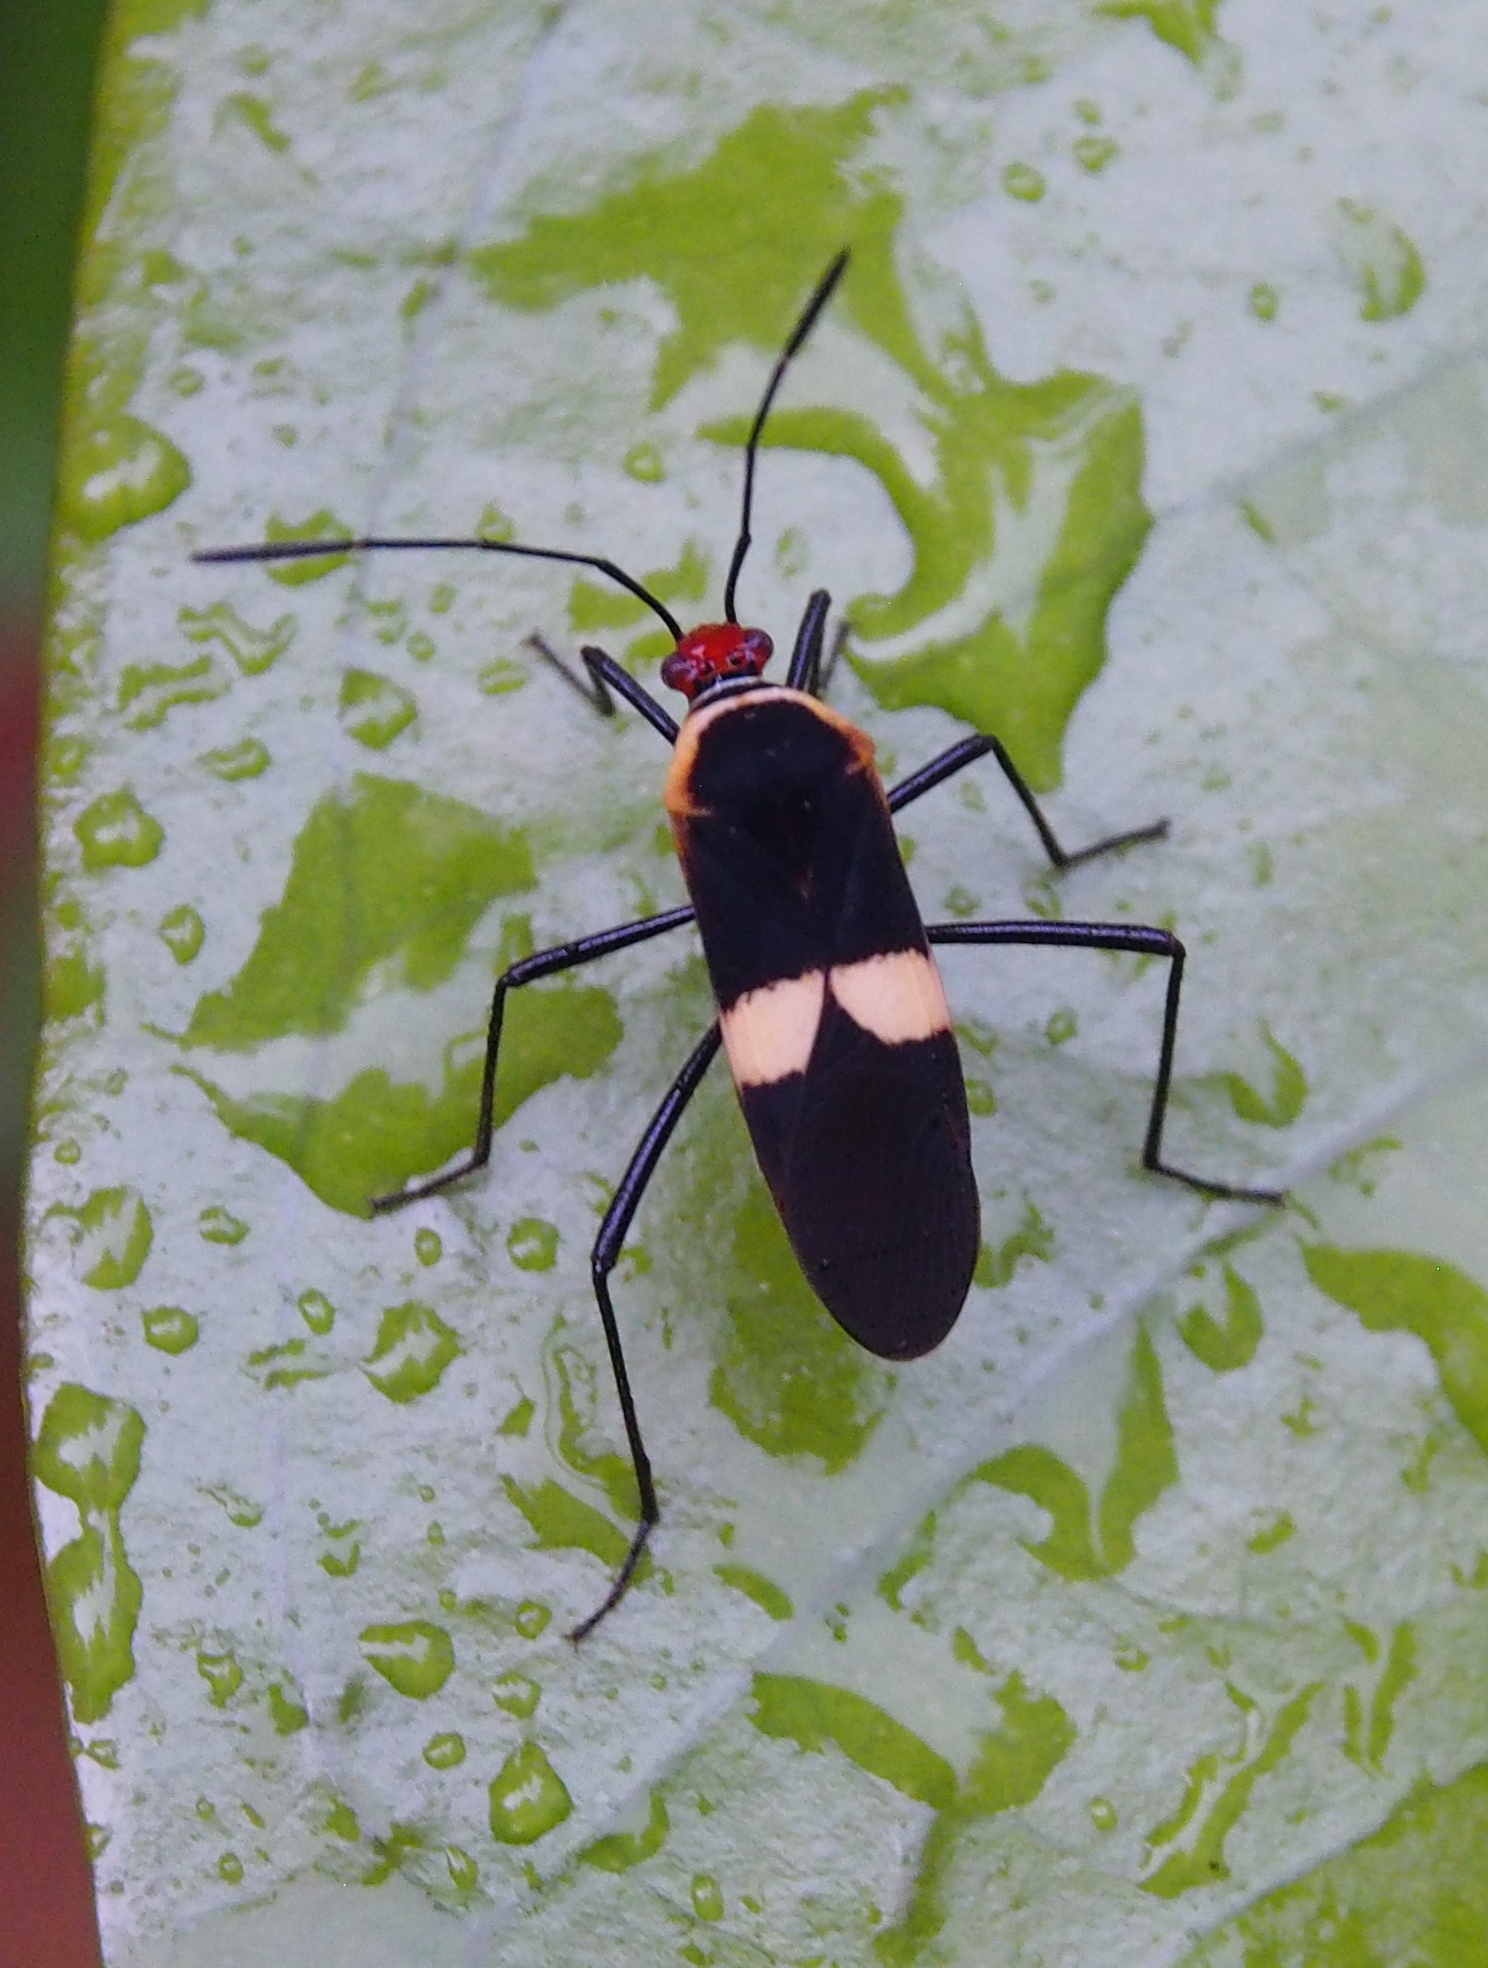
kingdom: Animalia
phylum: Arthropoda
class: Insecta
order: Hemiptera
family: Coreidae
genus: Hypselonotus
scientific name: Hypselonotus interruptus
